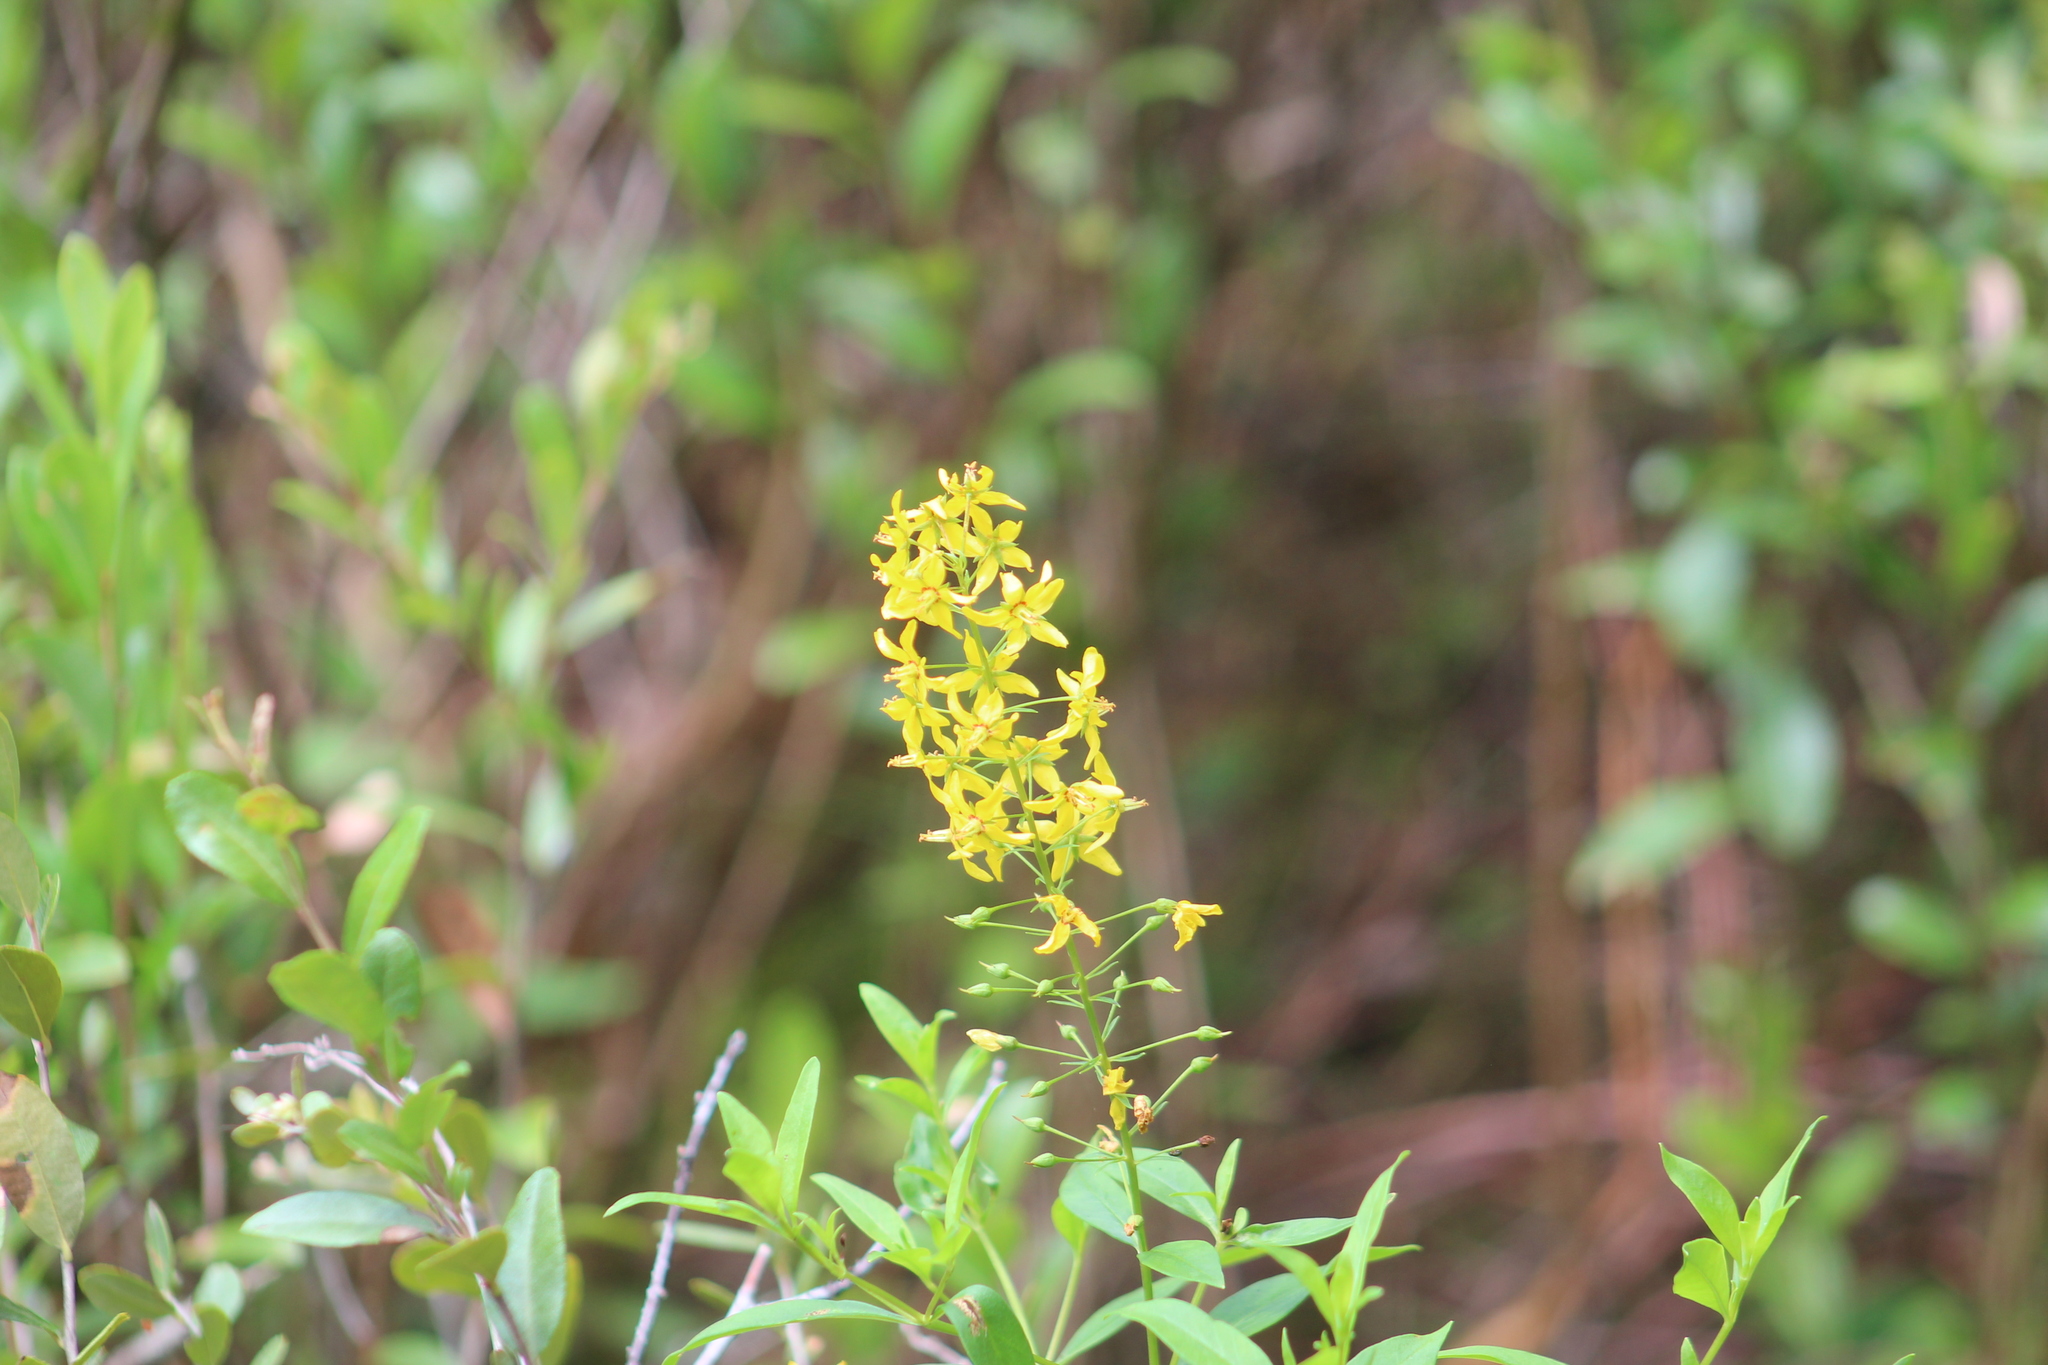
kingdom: Plantae
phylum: Tracheophyta
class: Magnoliopsida
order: Ericales
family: Primulaceae
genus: Lysimachia
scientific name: Lysimachia terrestris
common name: Lake loosestrife
